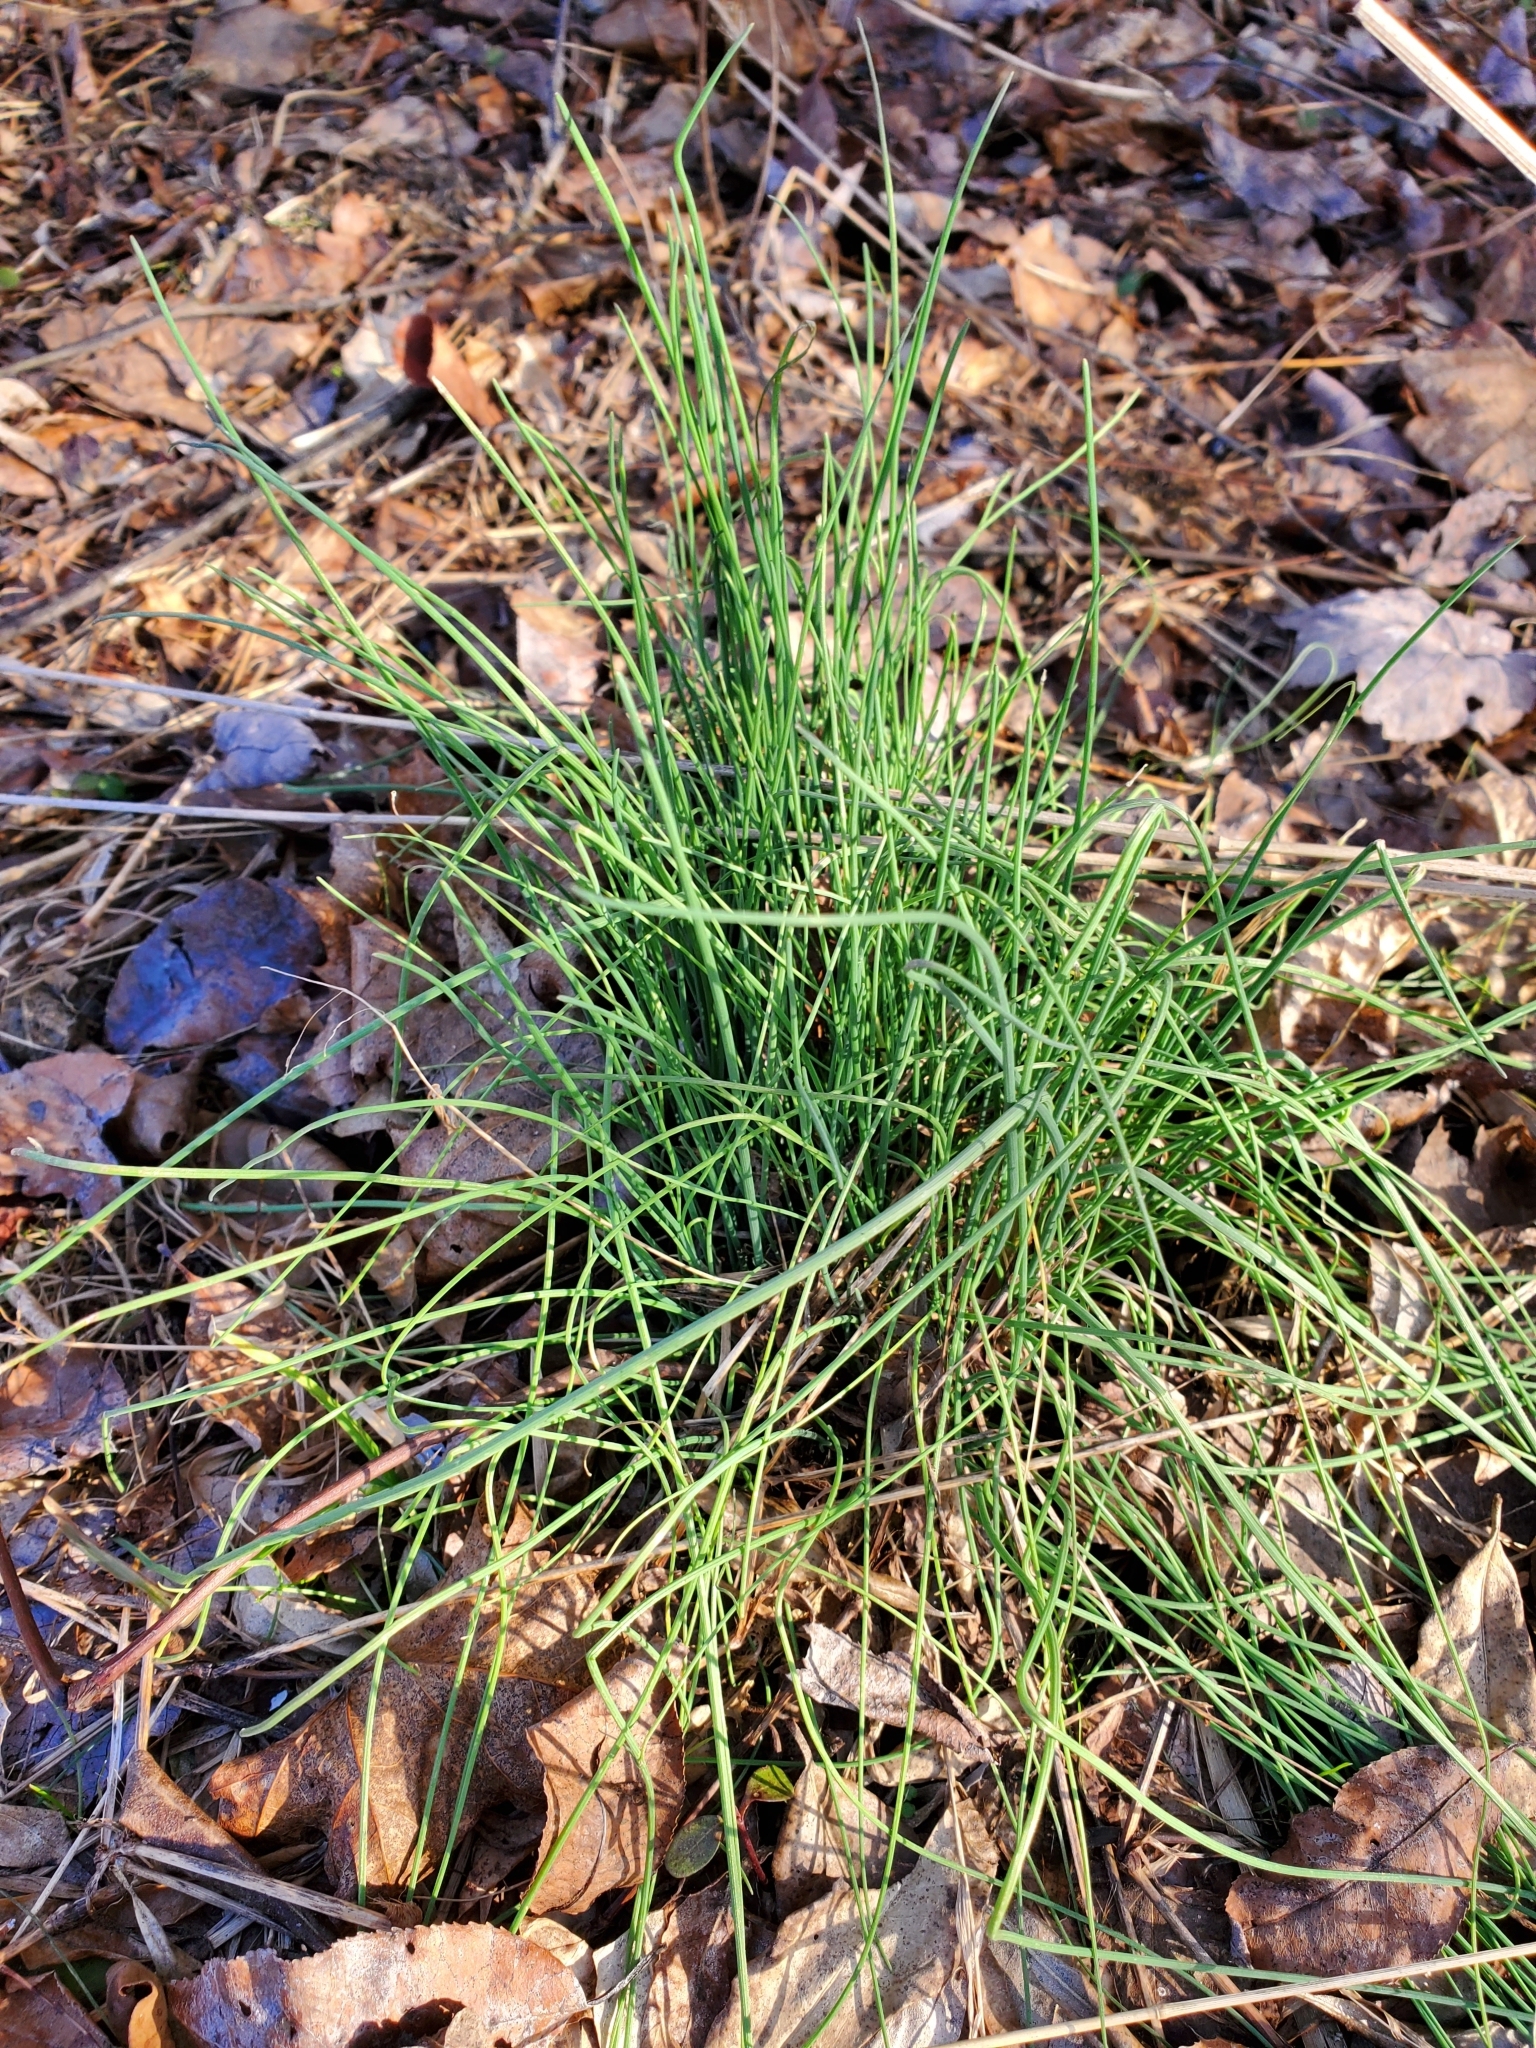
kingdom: Plantae
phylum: Tracheophyta
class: Liliopsida
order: Asparagales
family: Amaryllidaceae
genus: Allium
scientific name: Allium vineale
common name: Crow garlic
